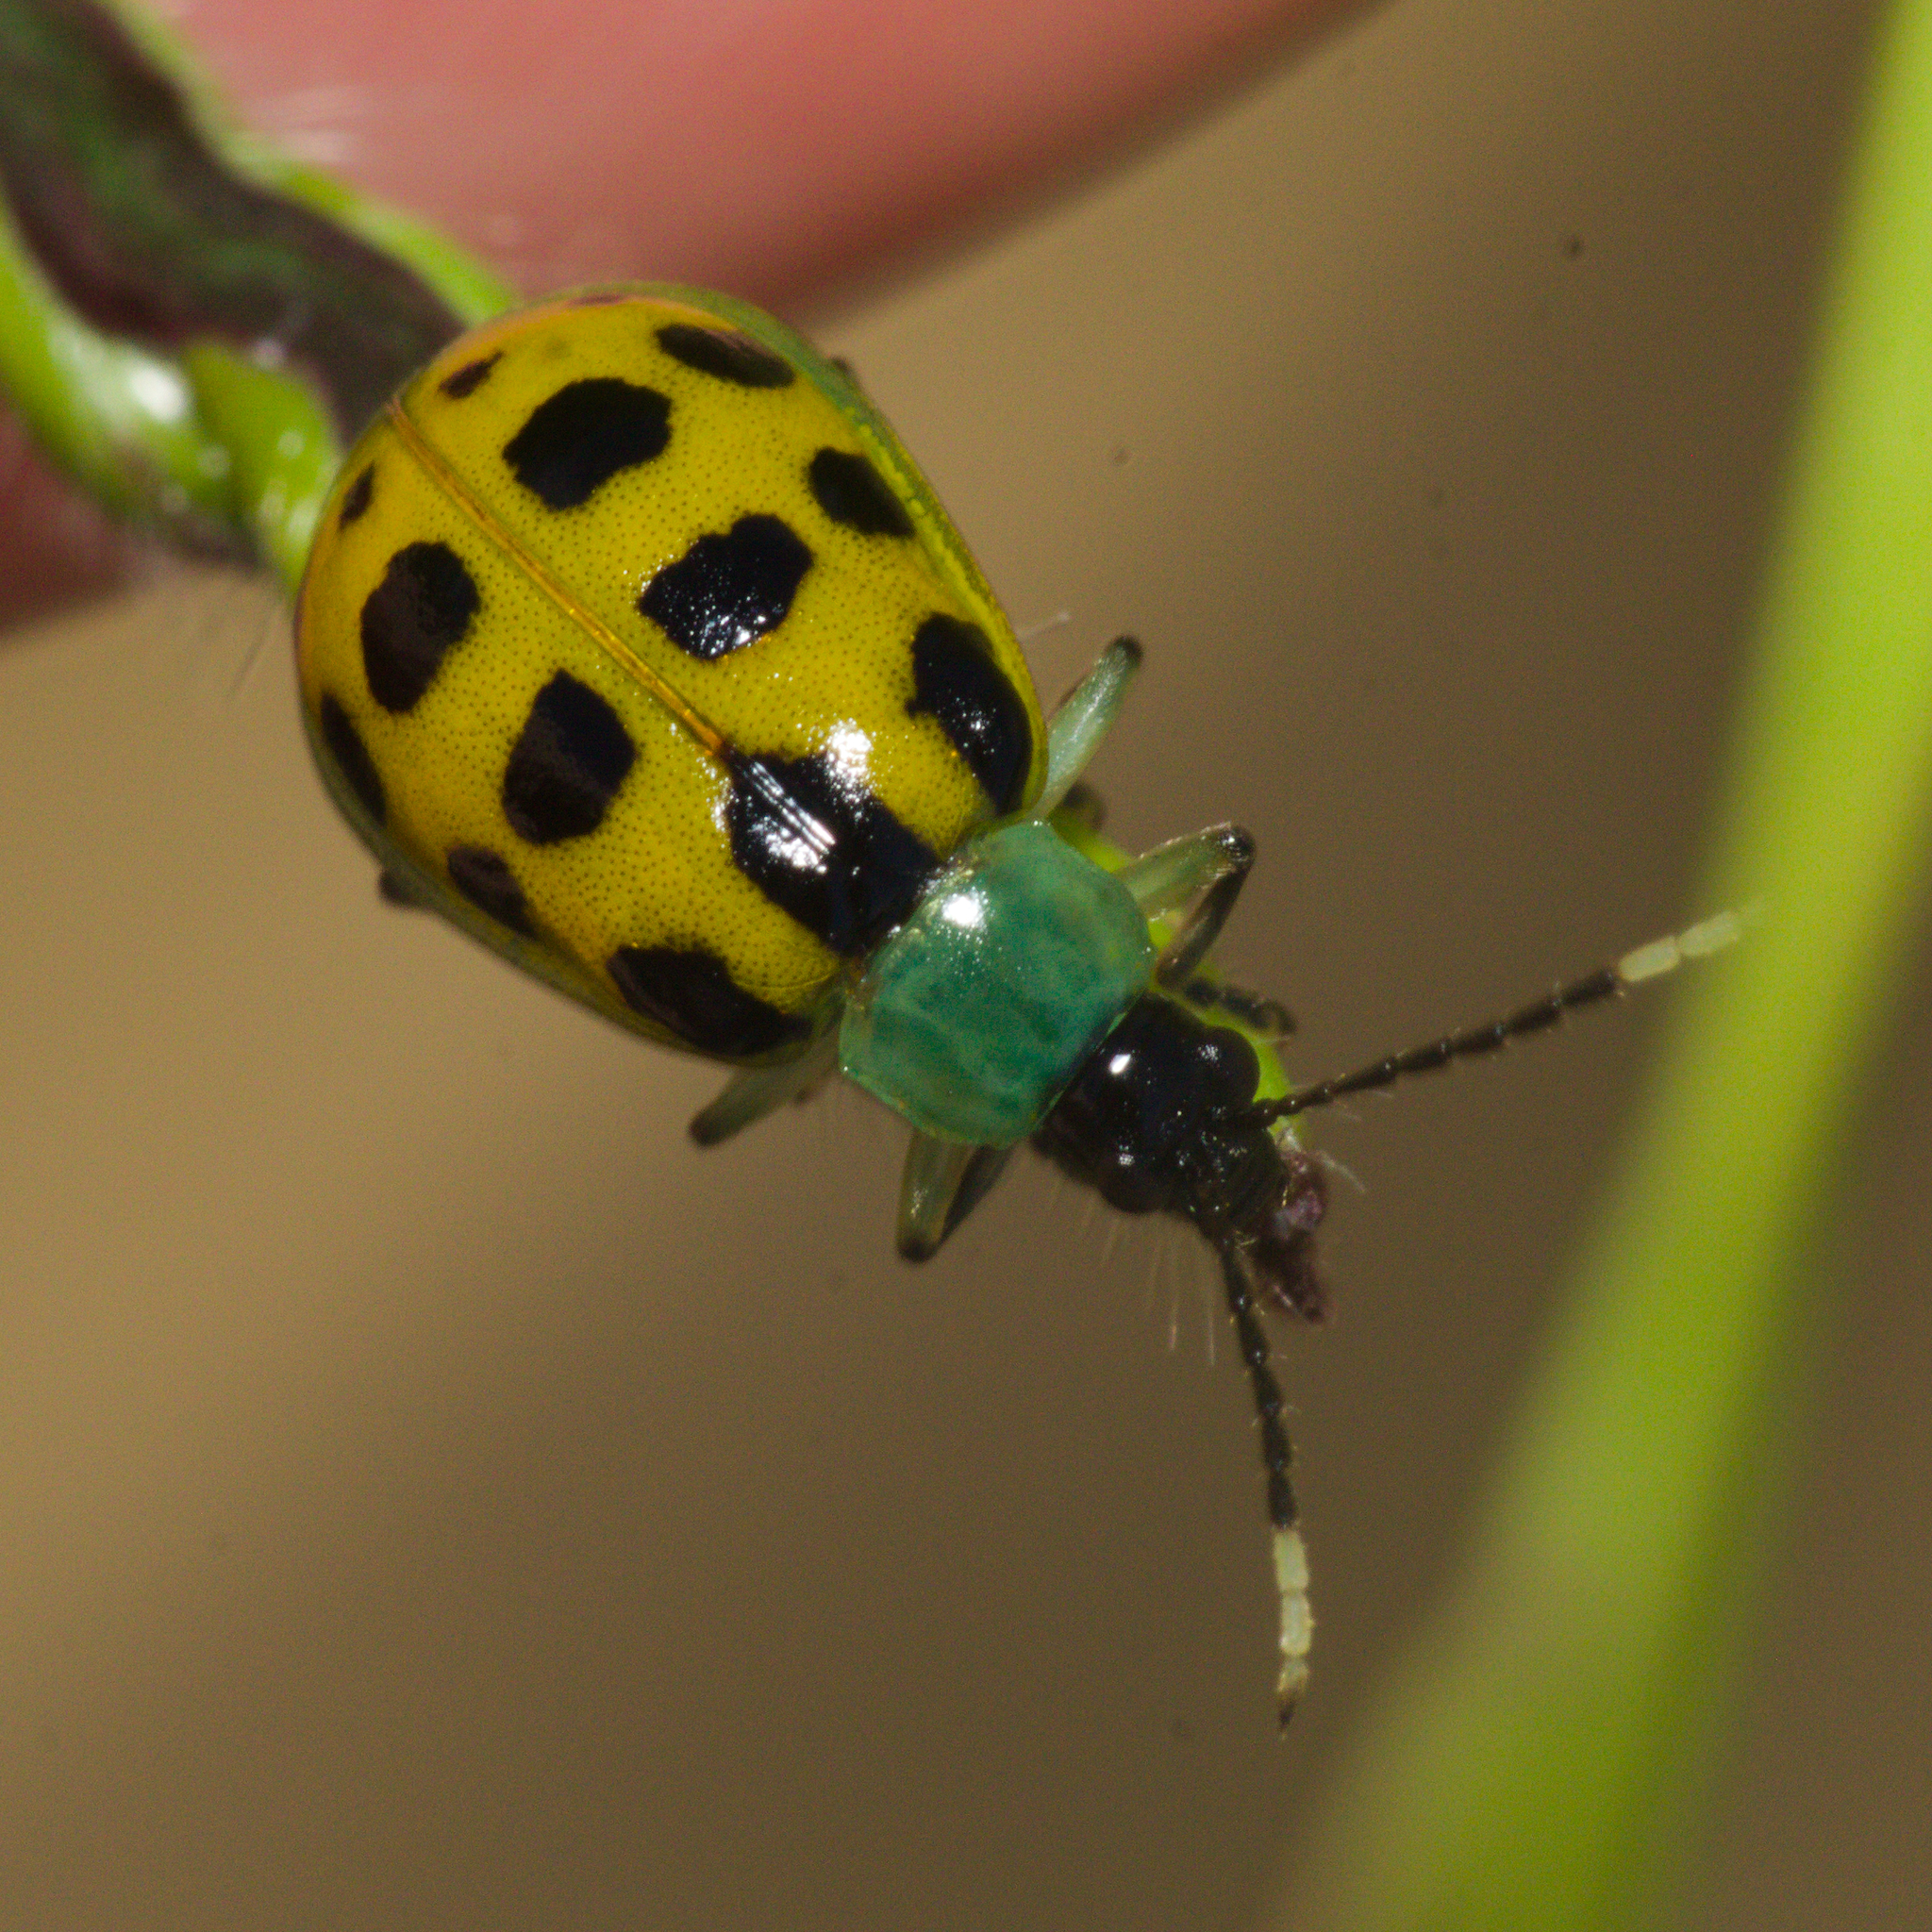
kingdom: Animalia
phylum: Arthropoda
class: Insecta
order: Coleoptera
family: Chrysomelidae
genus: Diabrotica
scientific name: Diabrotica limitata
